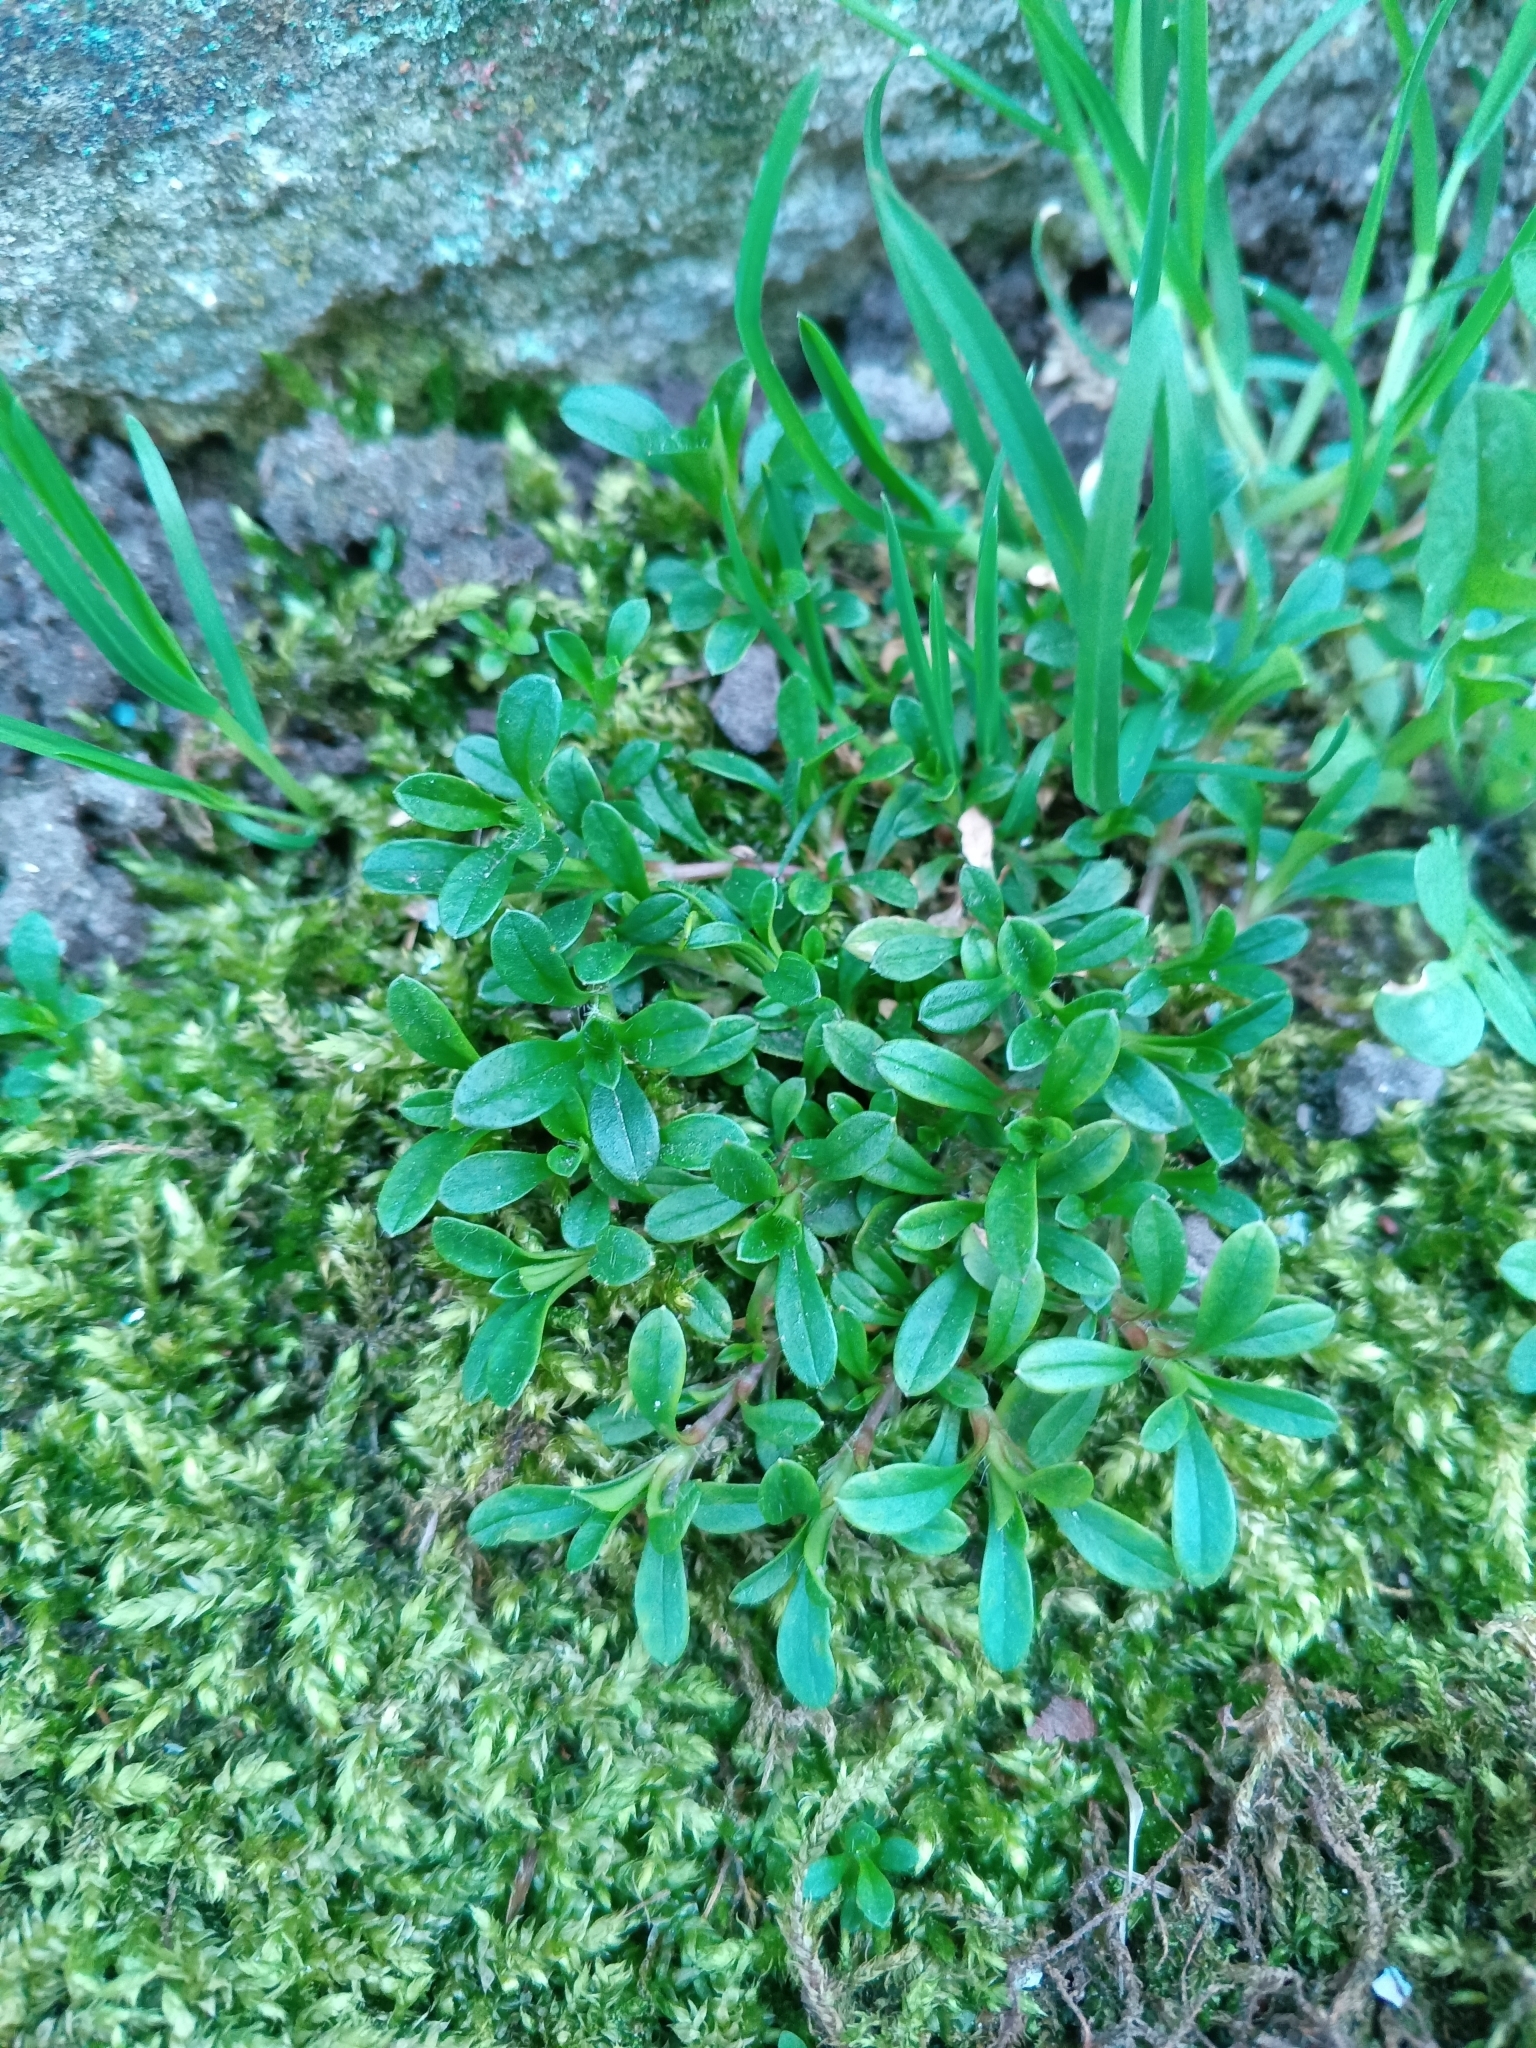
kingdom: Plantae
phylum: Tracheophyta
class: Magnoliopsida
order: Caryophyllales
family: Caryophyllaceae
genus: Cerastium
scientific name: Cerastium holosteoides
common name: Big chickweed
